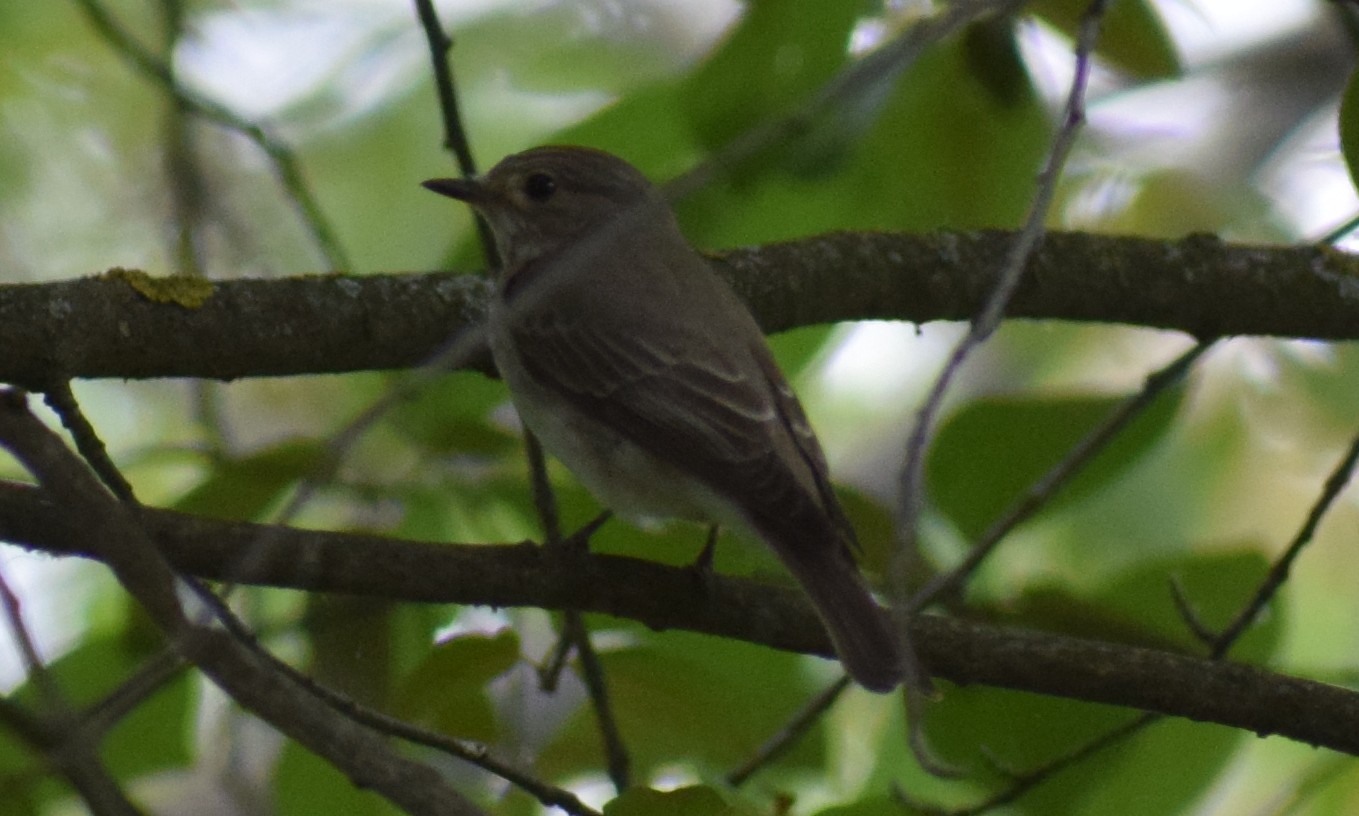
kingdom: Animalia
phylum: Chordata
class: Aves
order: Passeriformes
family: Muscicapidae
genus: Muscicapa
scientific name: Muscicapa striata
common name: Spotted flycatcher
